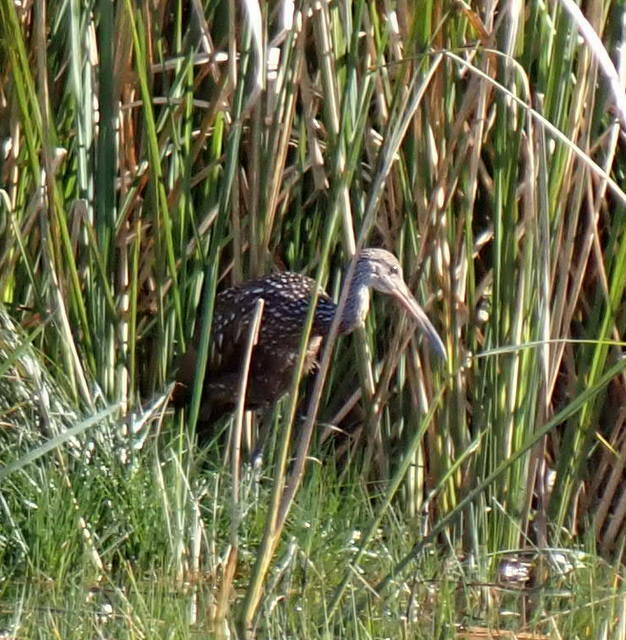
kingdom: Animalia
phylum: Chordata
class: Aves
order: Gruiformes
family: Aramidae
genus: Aramus
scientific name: Aramus guarauna
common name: Limpkin
